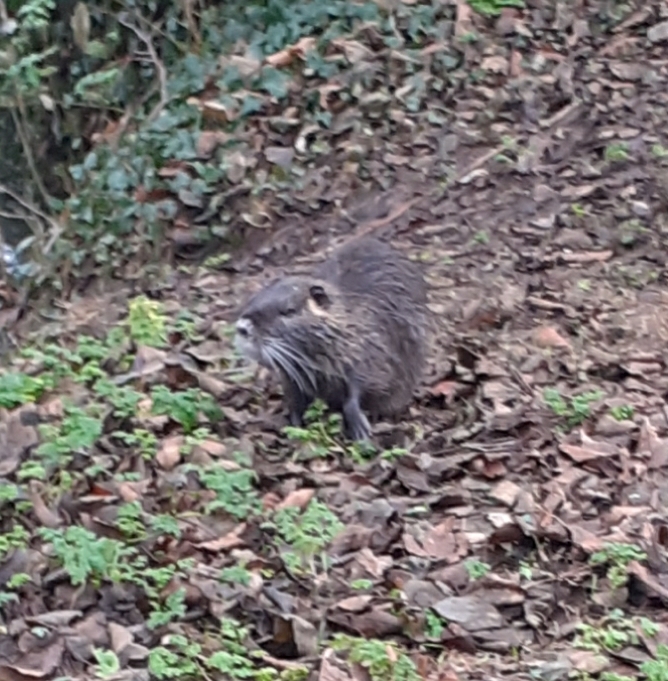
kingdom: Animalia
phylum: Chordata
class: Mammalia
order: Rodentia
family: Myocastoridae
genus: Myocastor
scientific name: Myocastor coypus
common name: Coypu
